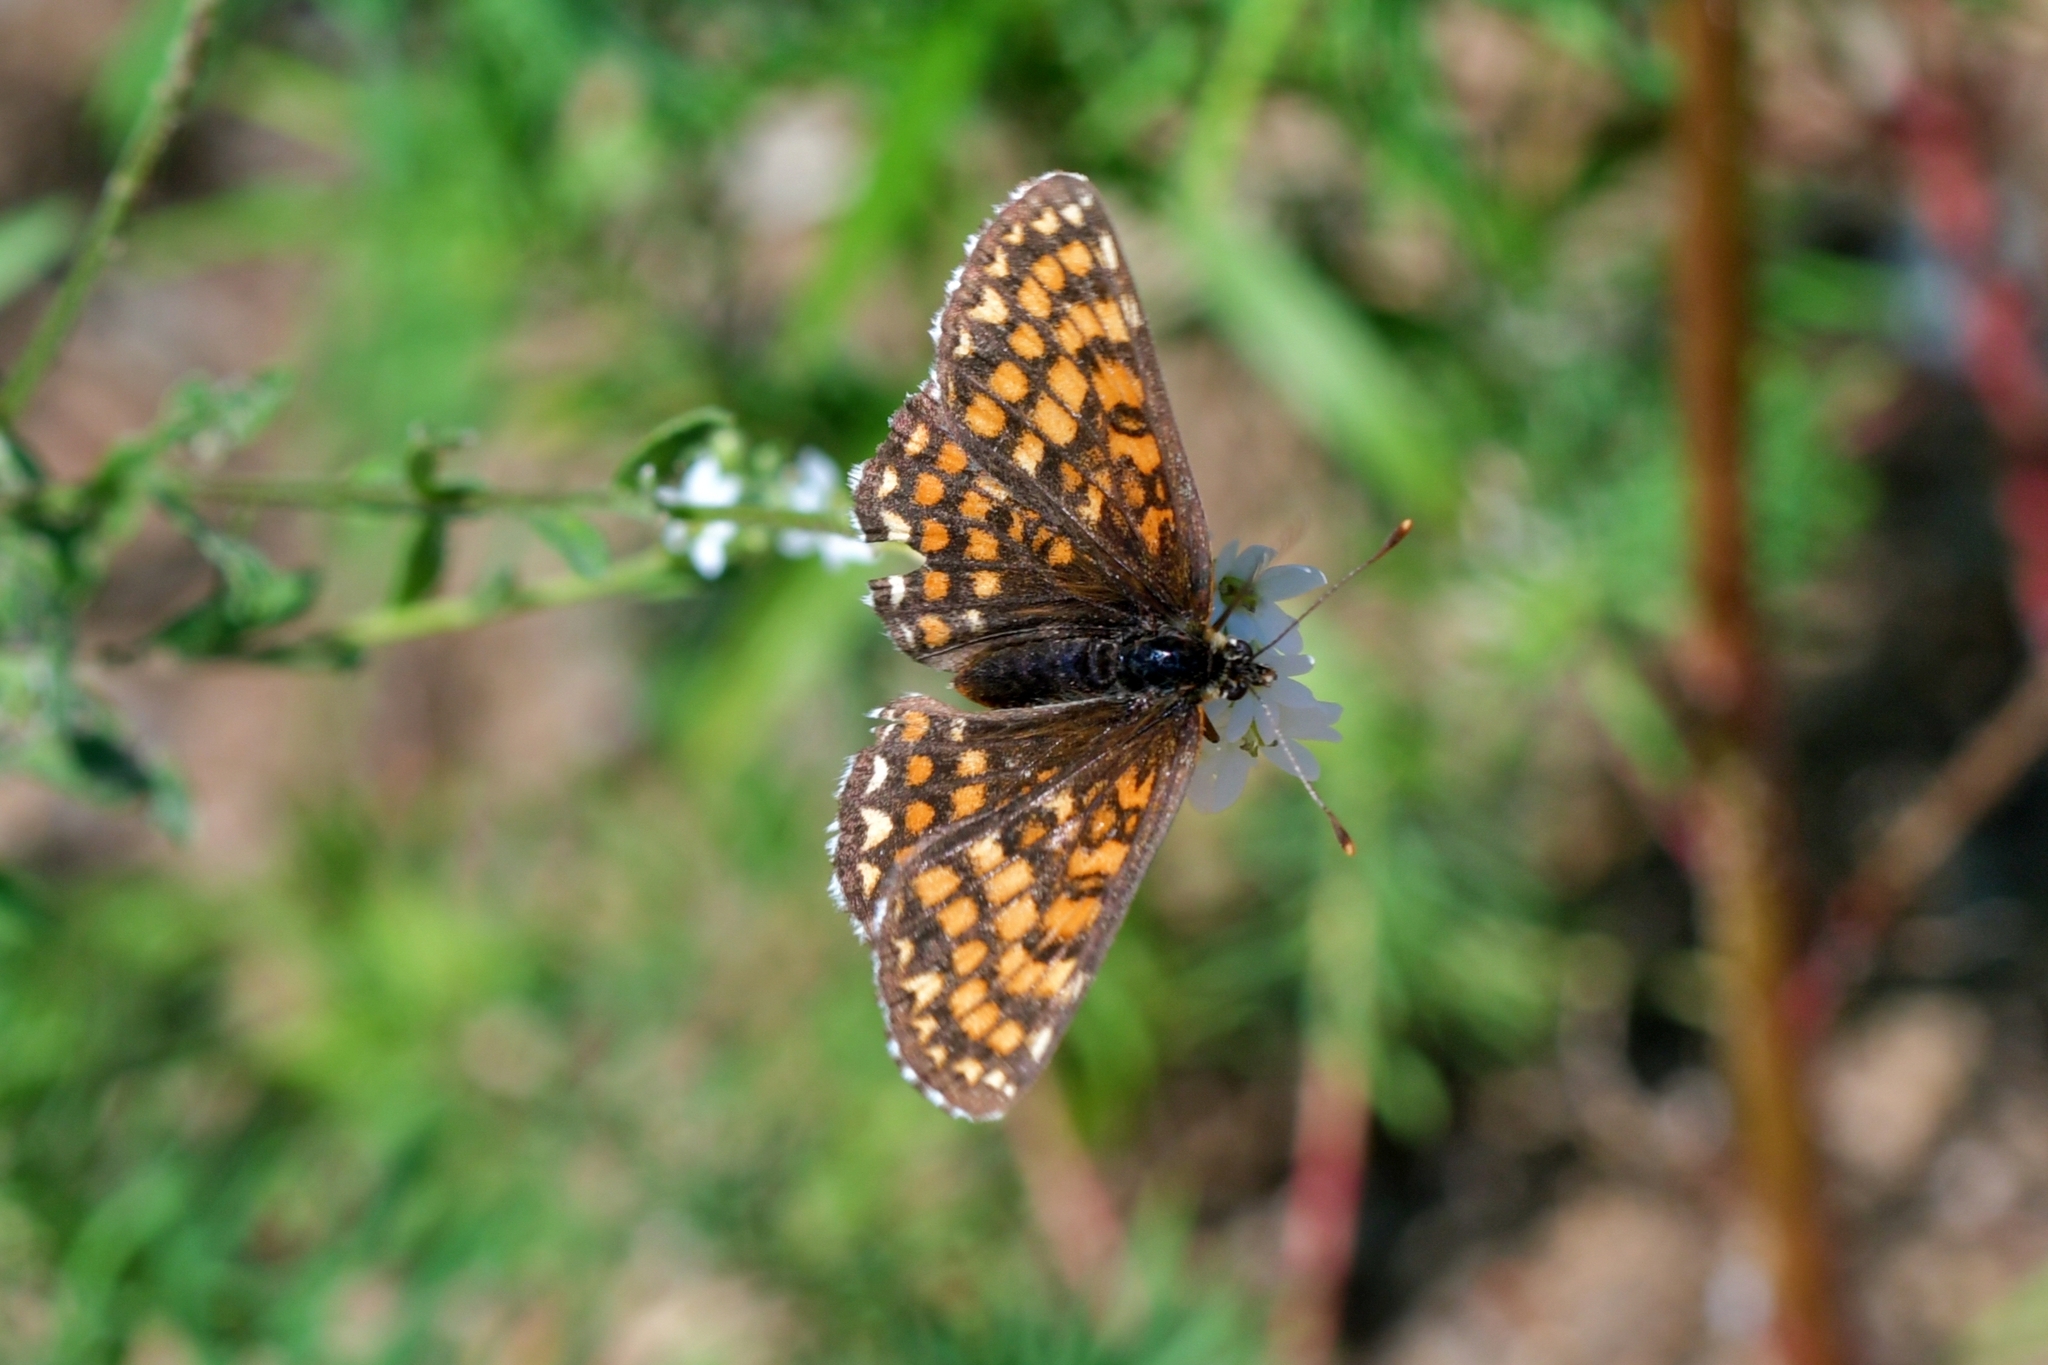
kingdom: Animalia
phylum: Arthropoda
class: Insecta
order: Lepidoptera
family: Nymphalidae
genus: Melitaea
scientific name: Melitaea athalia
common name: Heath fritillary
